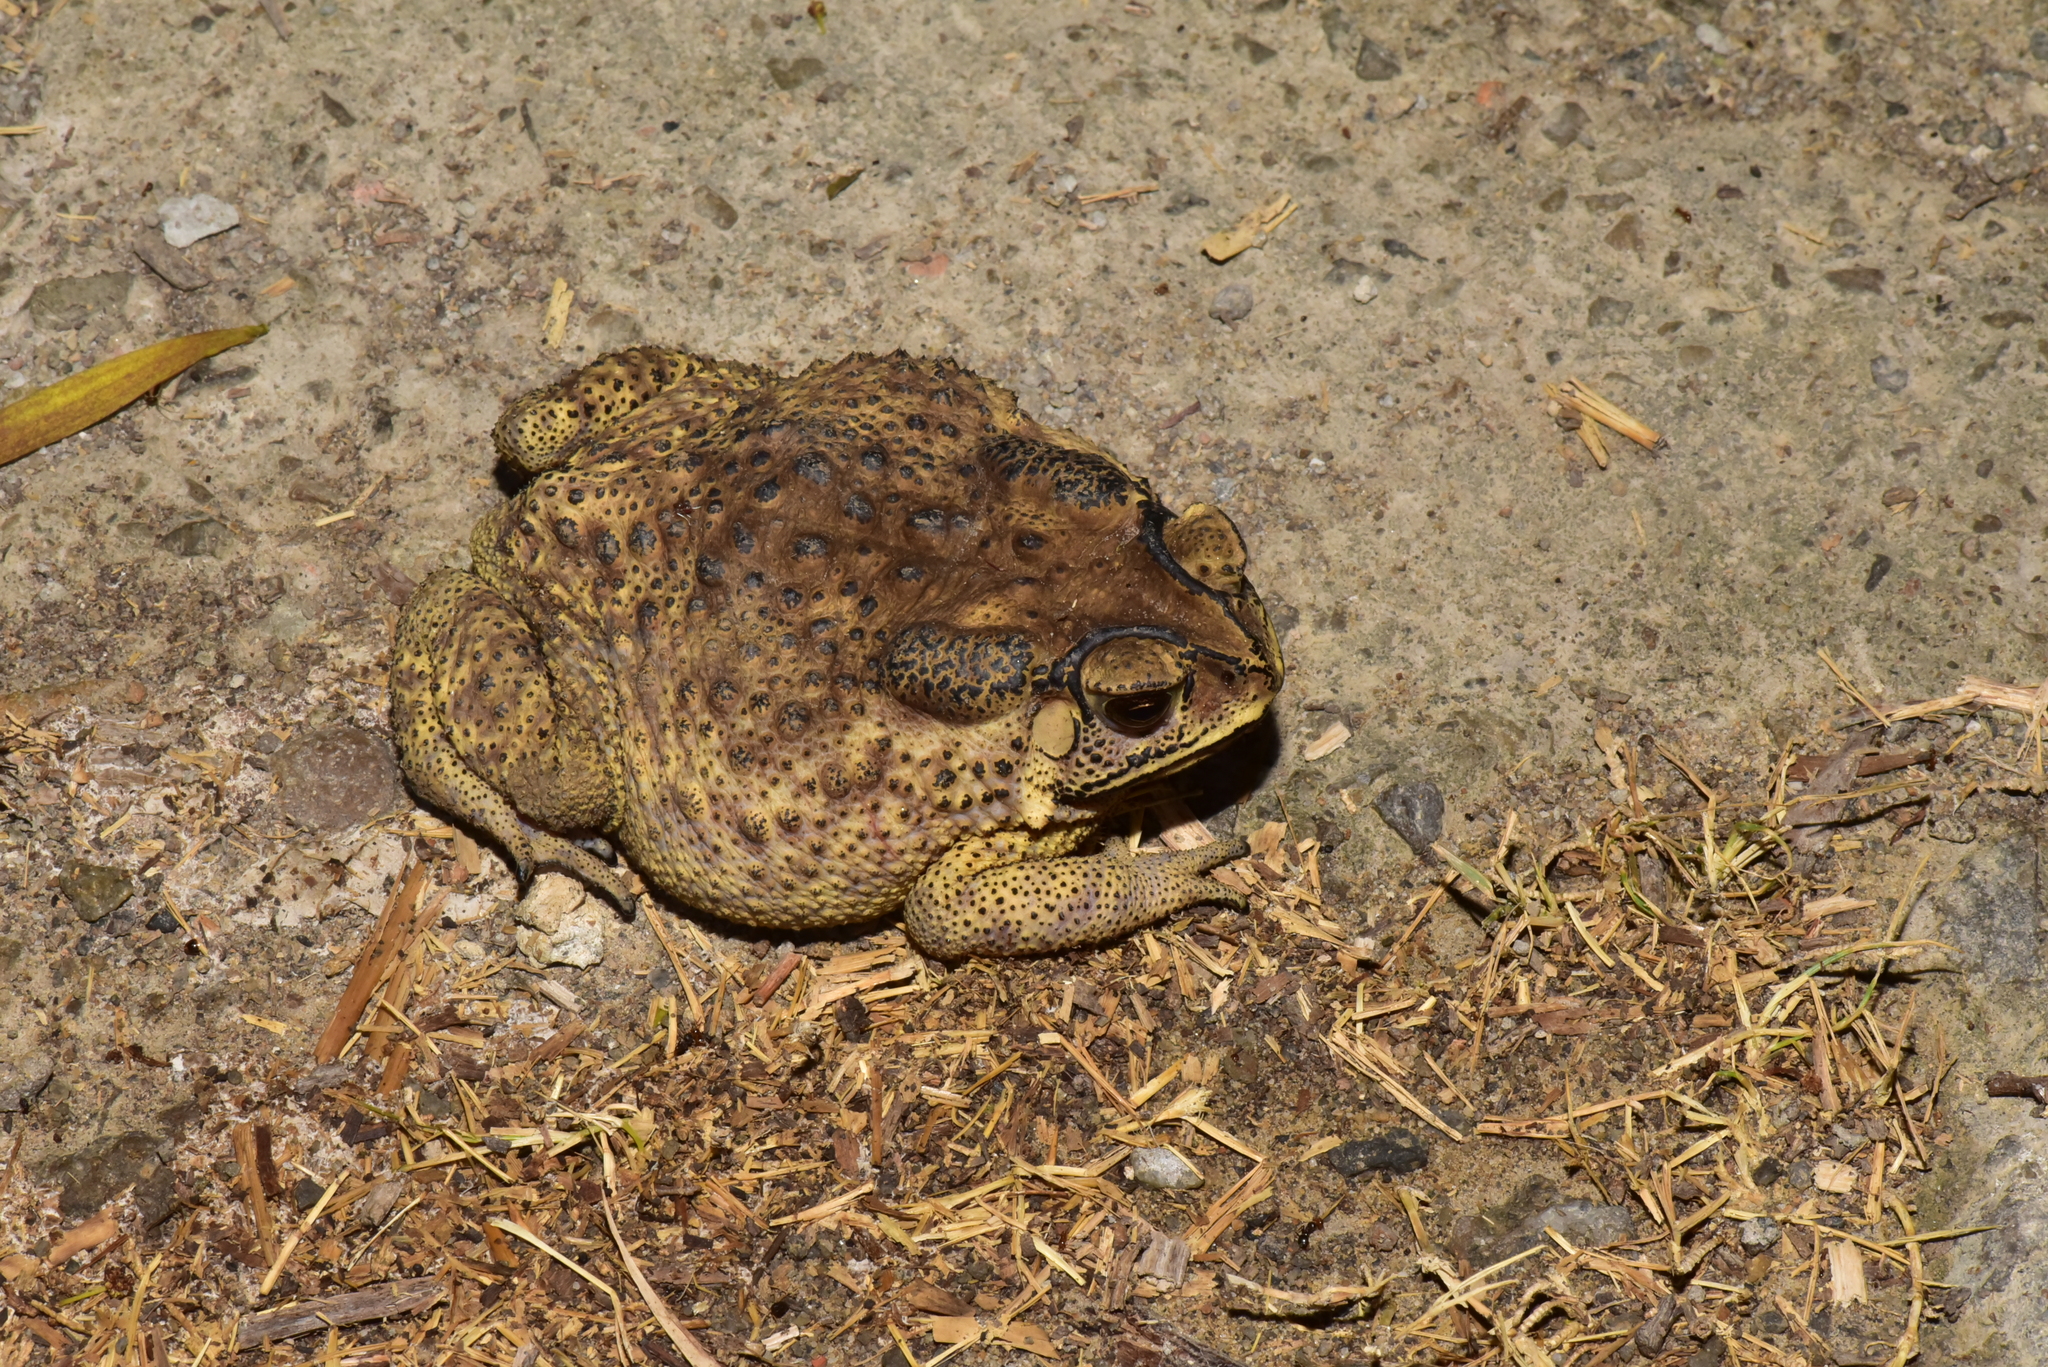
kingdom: Animalia
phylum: Chordata
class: Amphibia
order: Anura
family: Bufonidae
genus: Duttaphrynus
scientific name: Duttaphrynus melanostictus
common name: Common sunda toad
